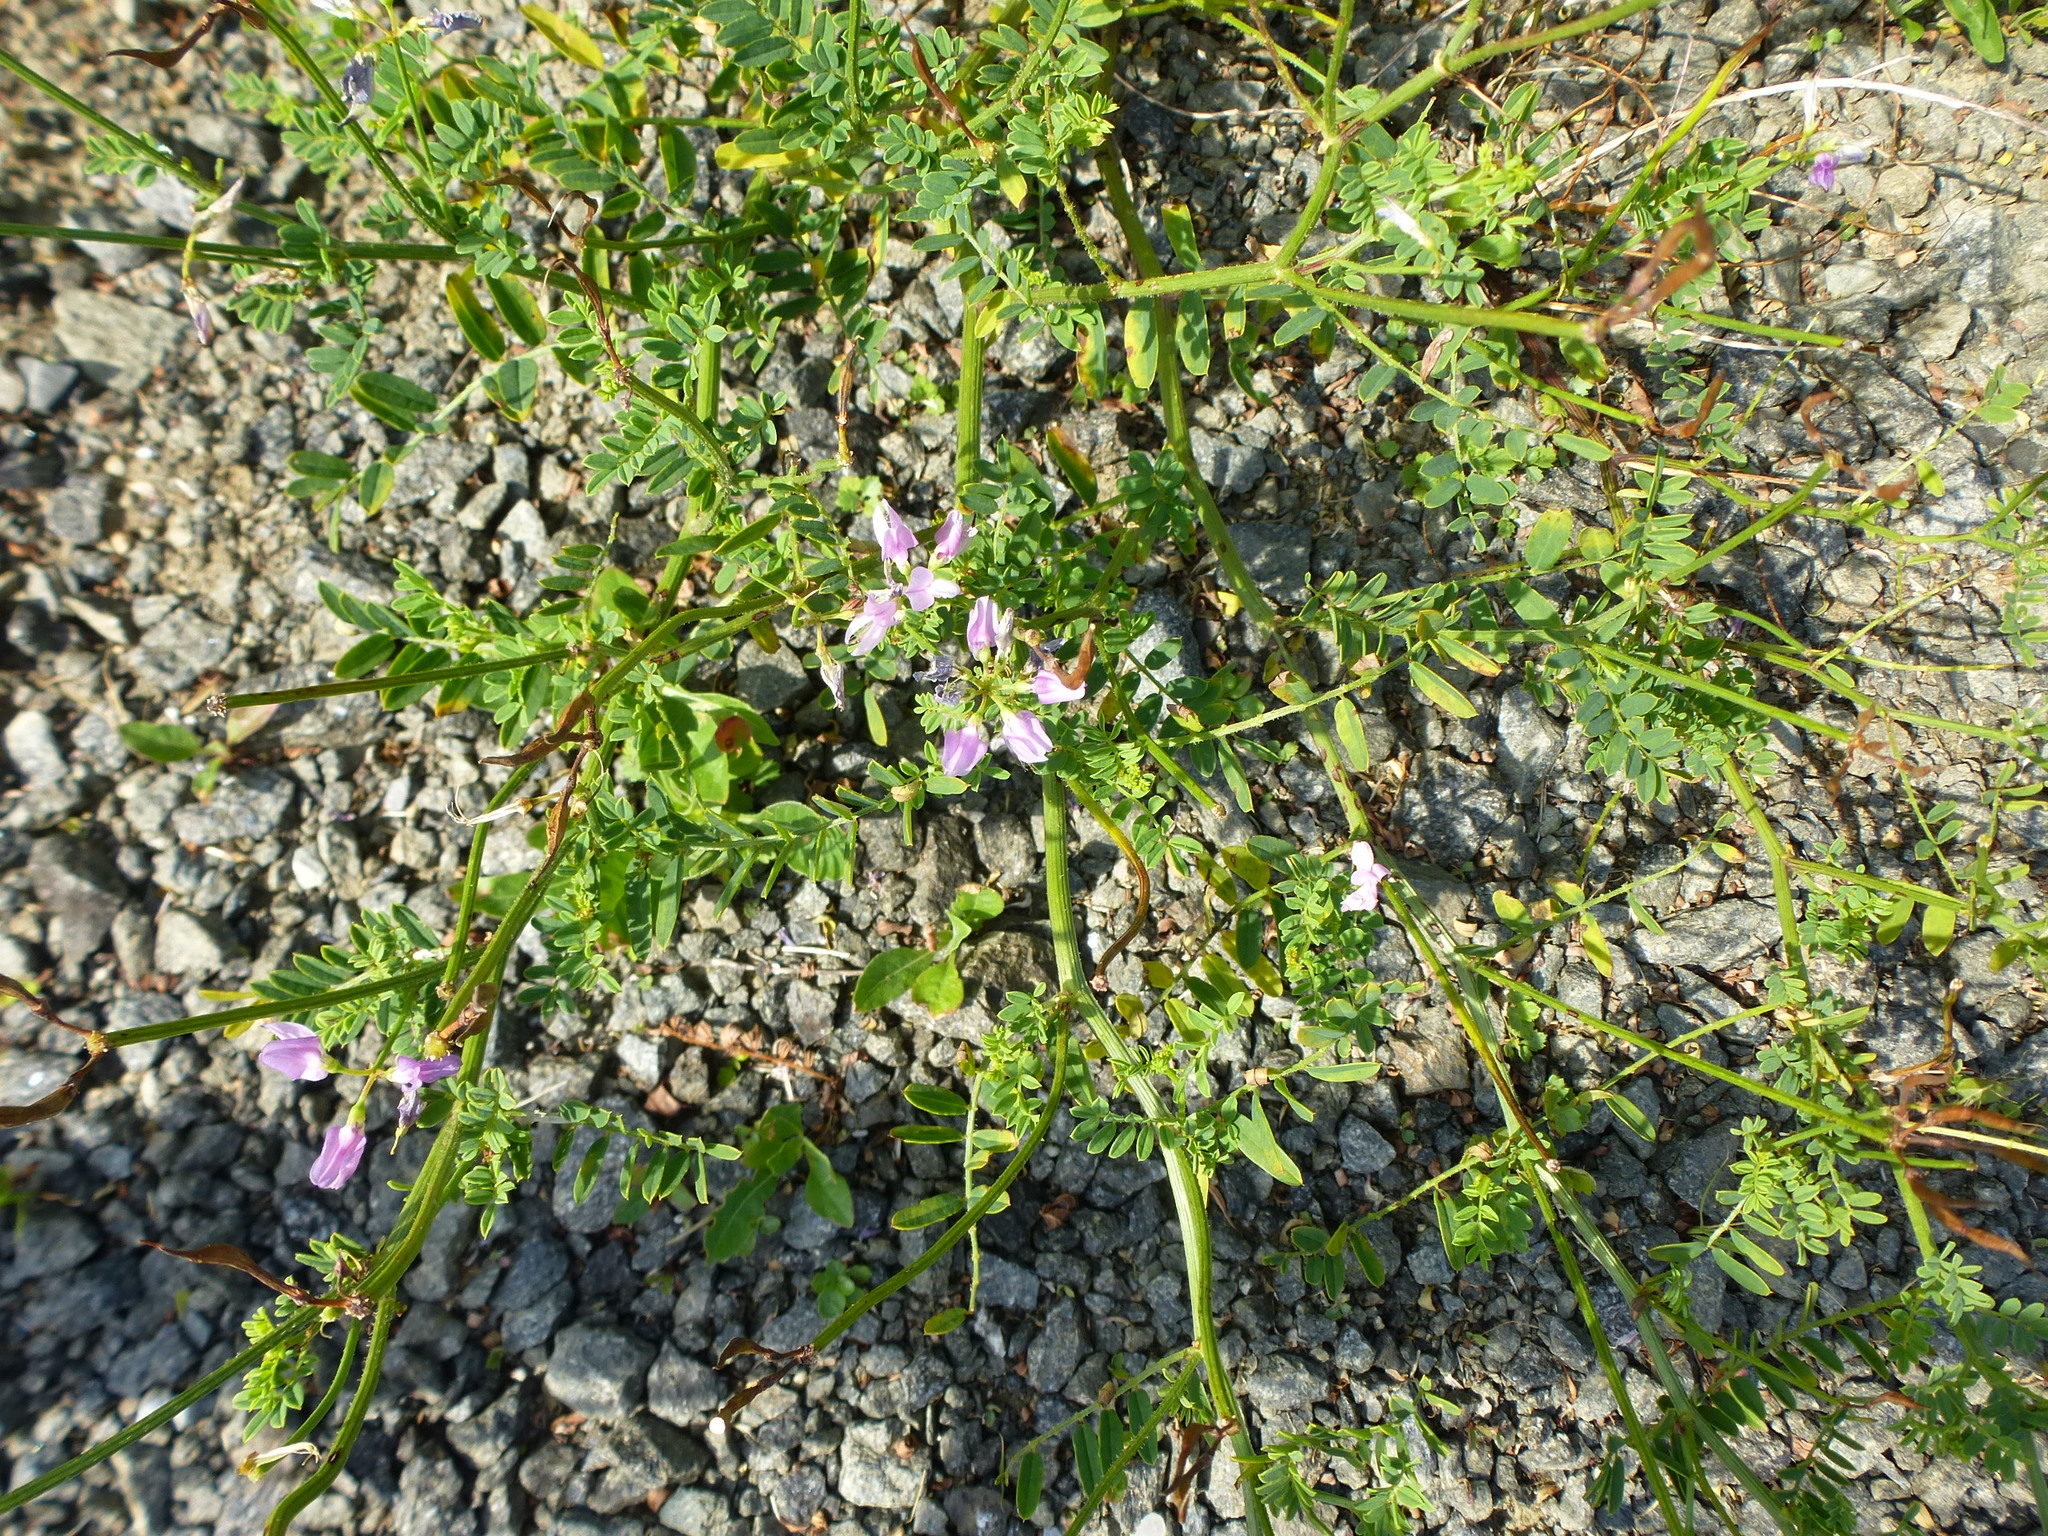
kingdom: Plantae
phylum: Tracheophyta
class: Magnoliopsida
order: Fabales
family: Fabaceae
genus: Coronilla
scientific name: Coronilla varia
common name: Crownvetch
